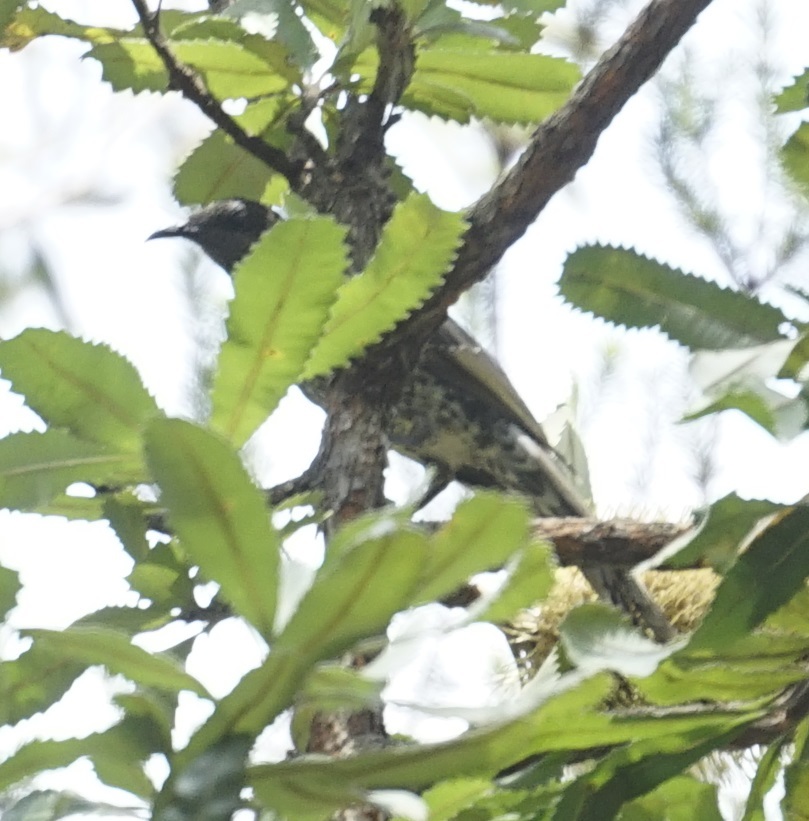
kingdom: Animalia
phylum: Chordata
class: Aves
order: Passeriformes
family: Meliphagidae
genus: Anthochaera
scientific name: Anthochaera chrysoptera
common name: Little wattlebird
